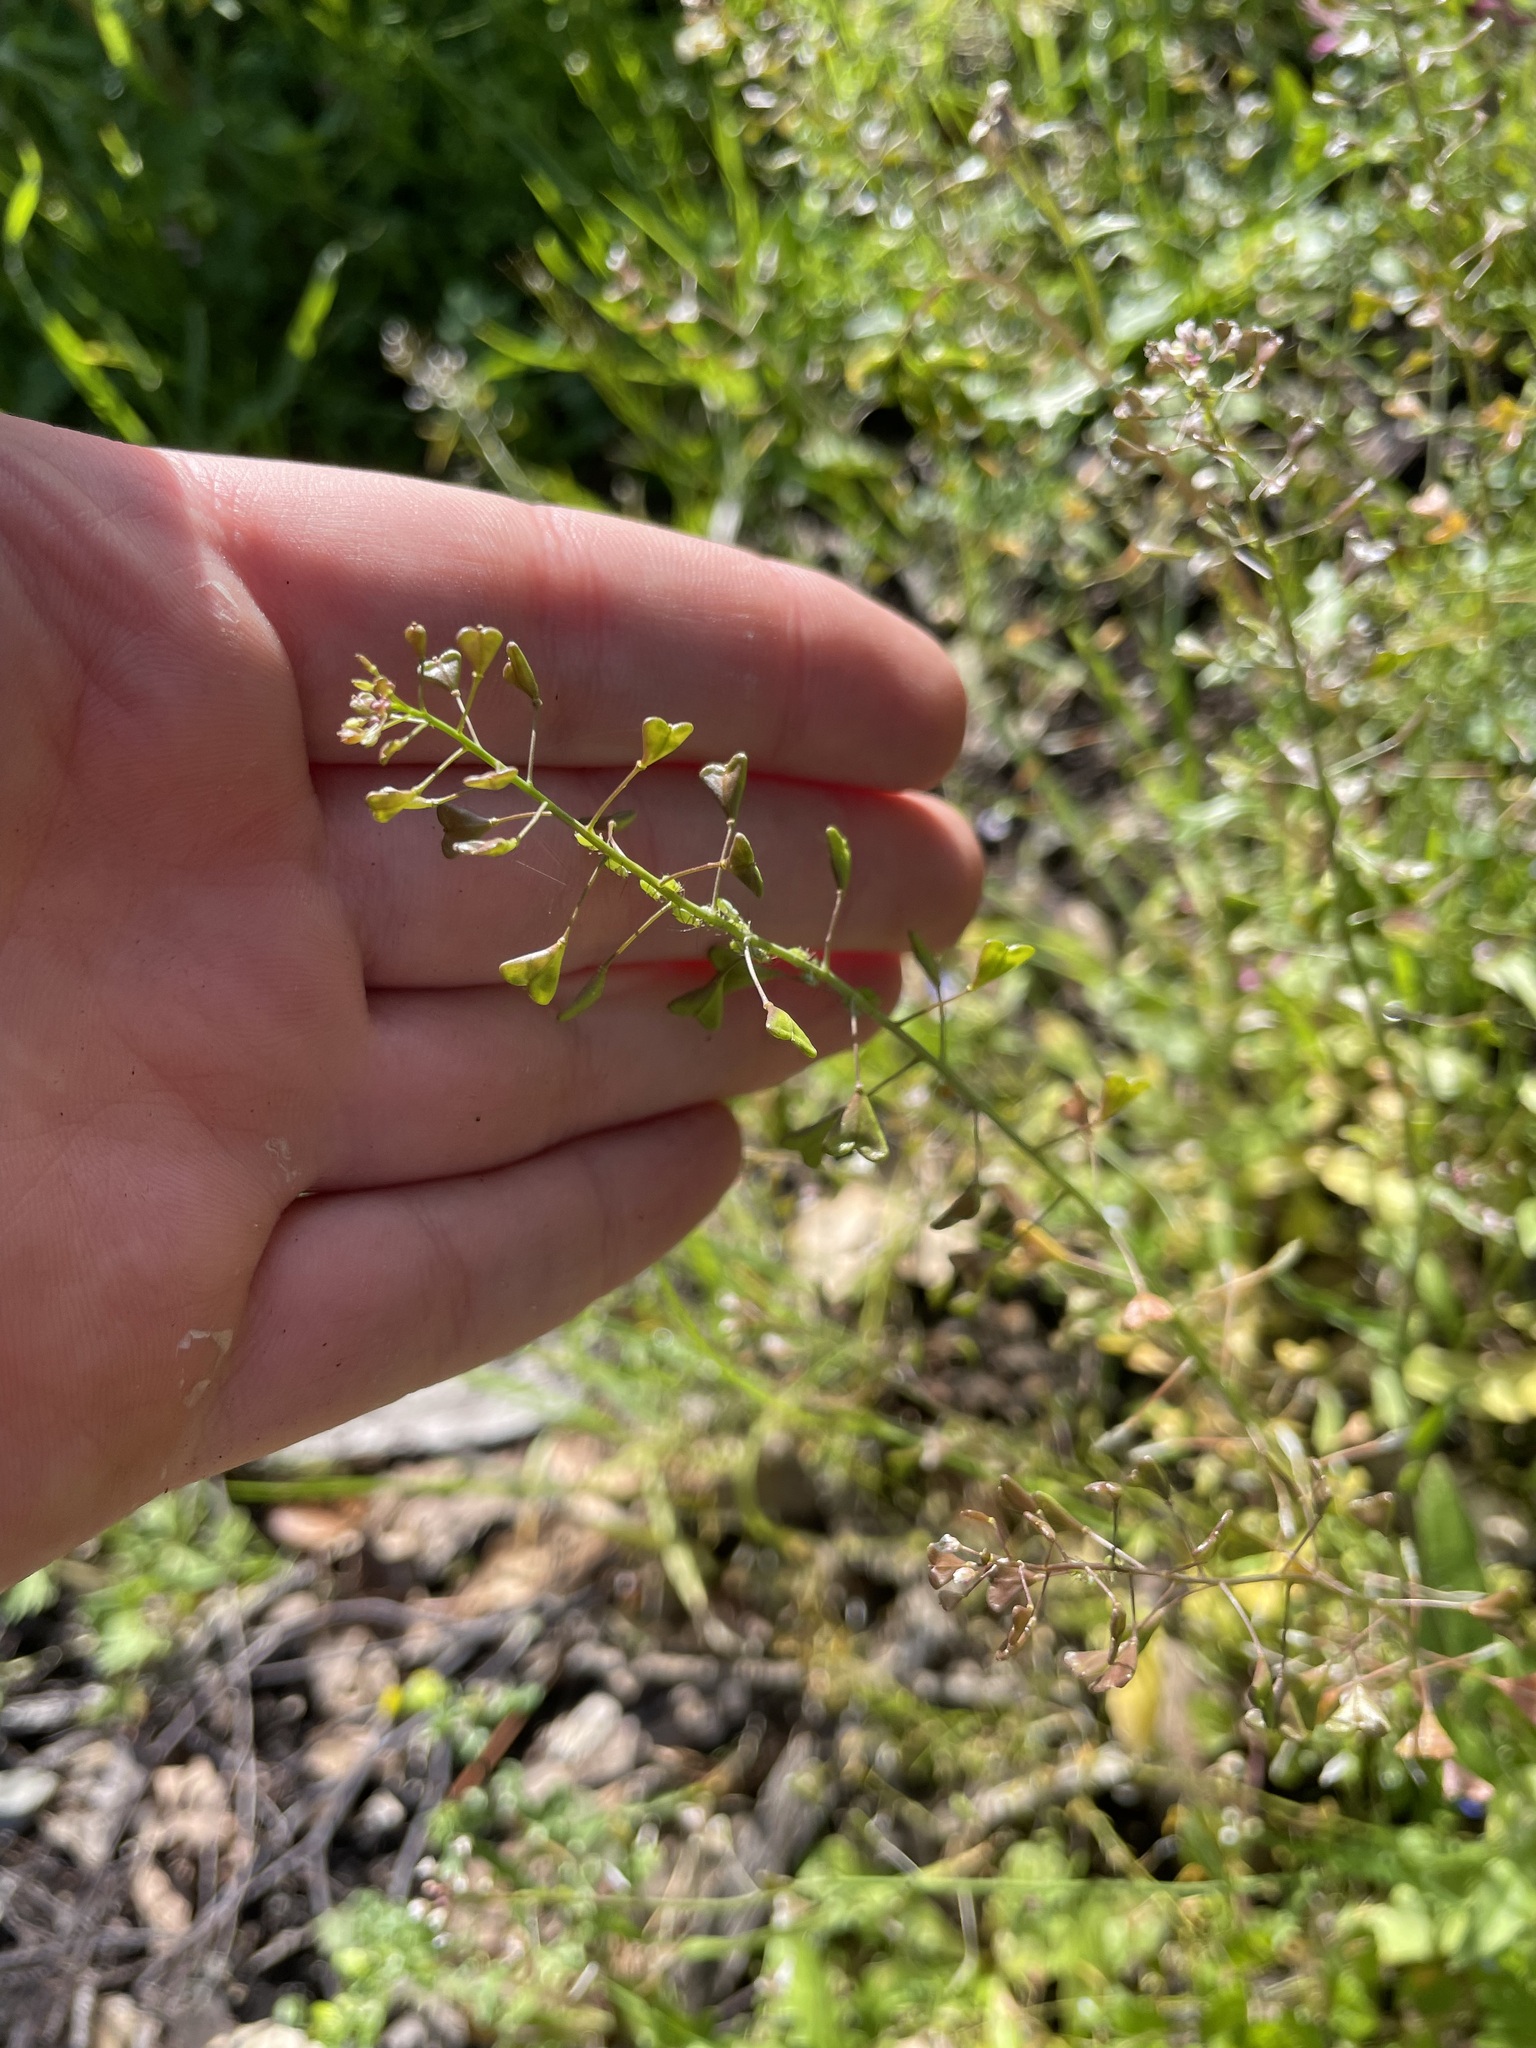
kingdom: Plantae
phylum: Tracheophyta
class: Magnoliopsida
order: Brassicales
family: Brassicaceae
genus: Capsella
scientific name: Capsella bursa-pastoris
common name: Shepherd's purse
